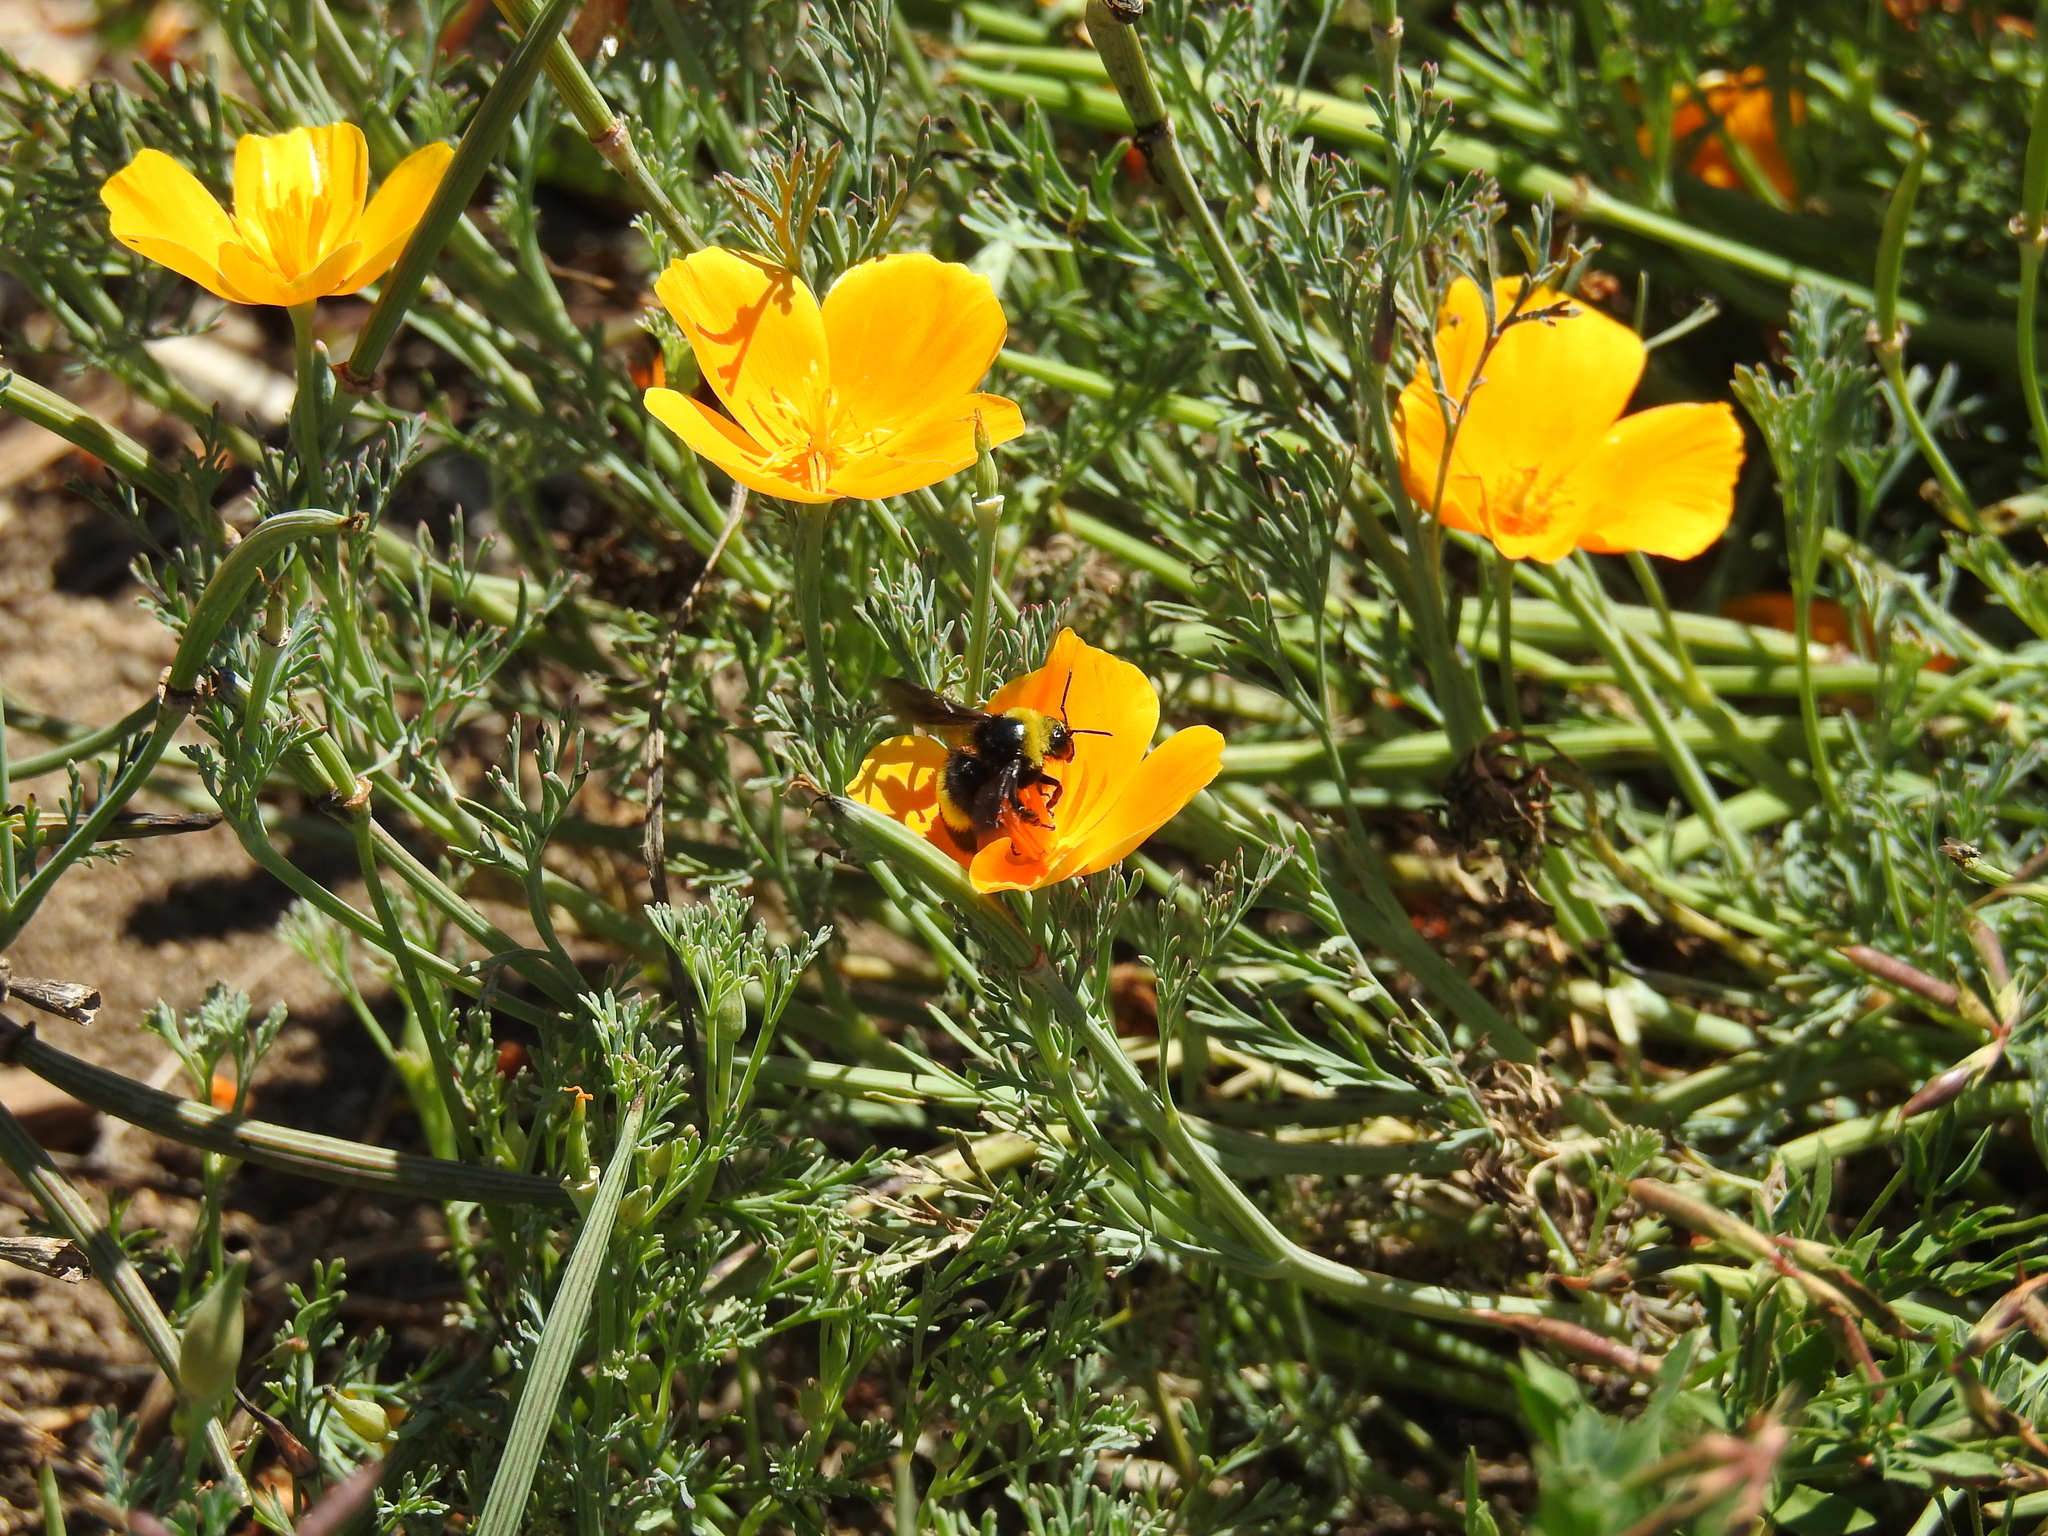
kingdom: Animalia
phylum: Arthropoda
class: Insecta
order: Hymenoptera
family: Apidae
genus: Bombus
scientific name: Bombus crotchii
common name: Crotch bumble bee
